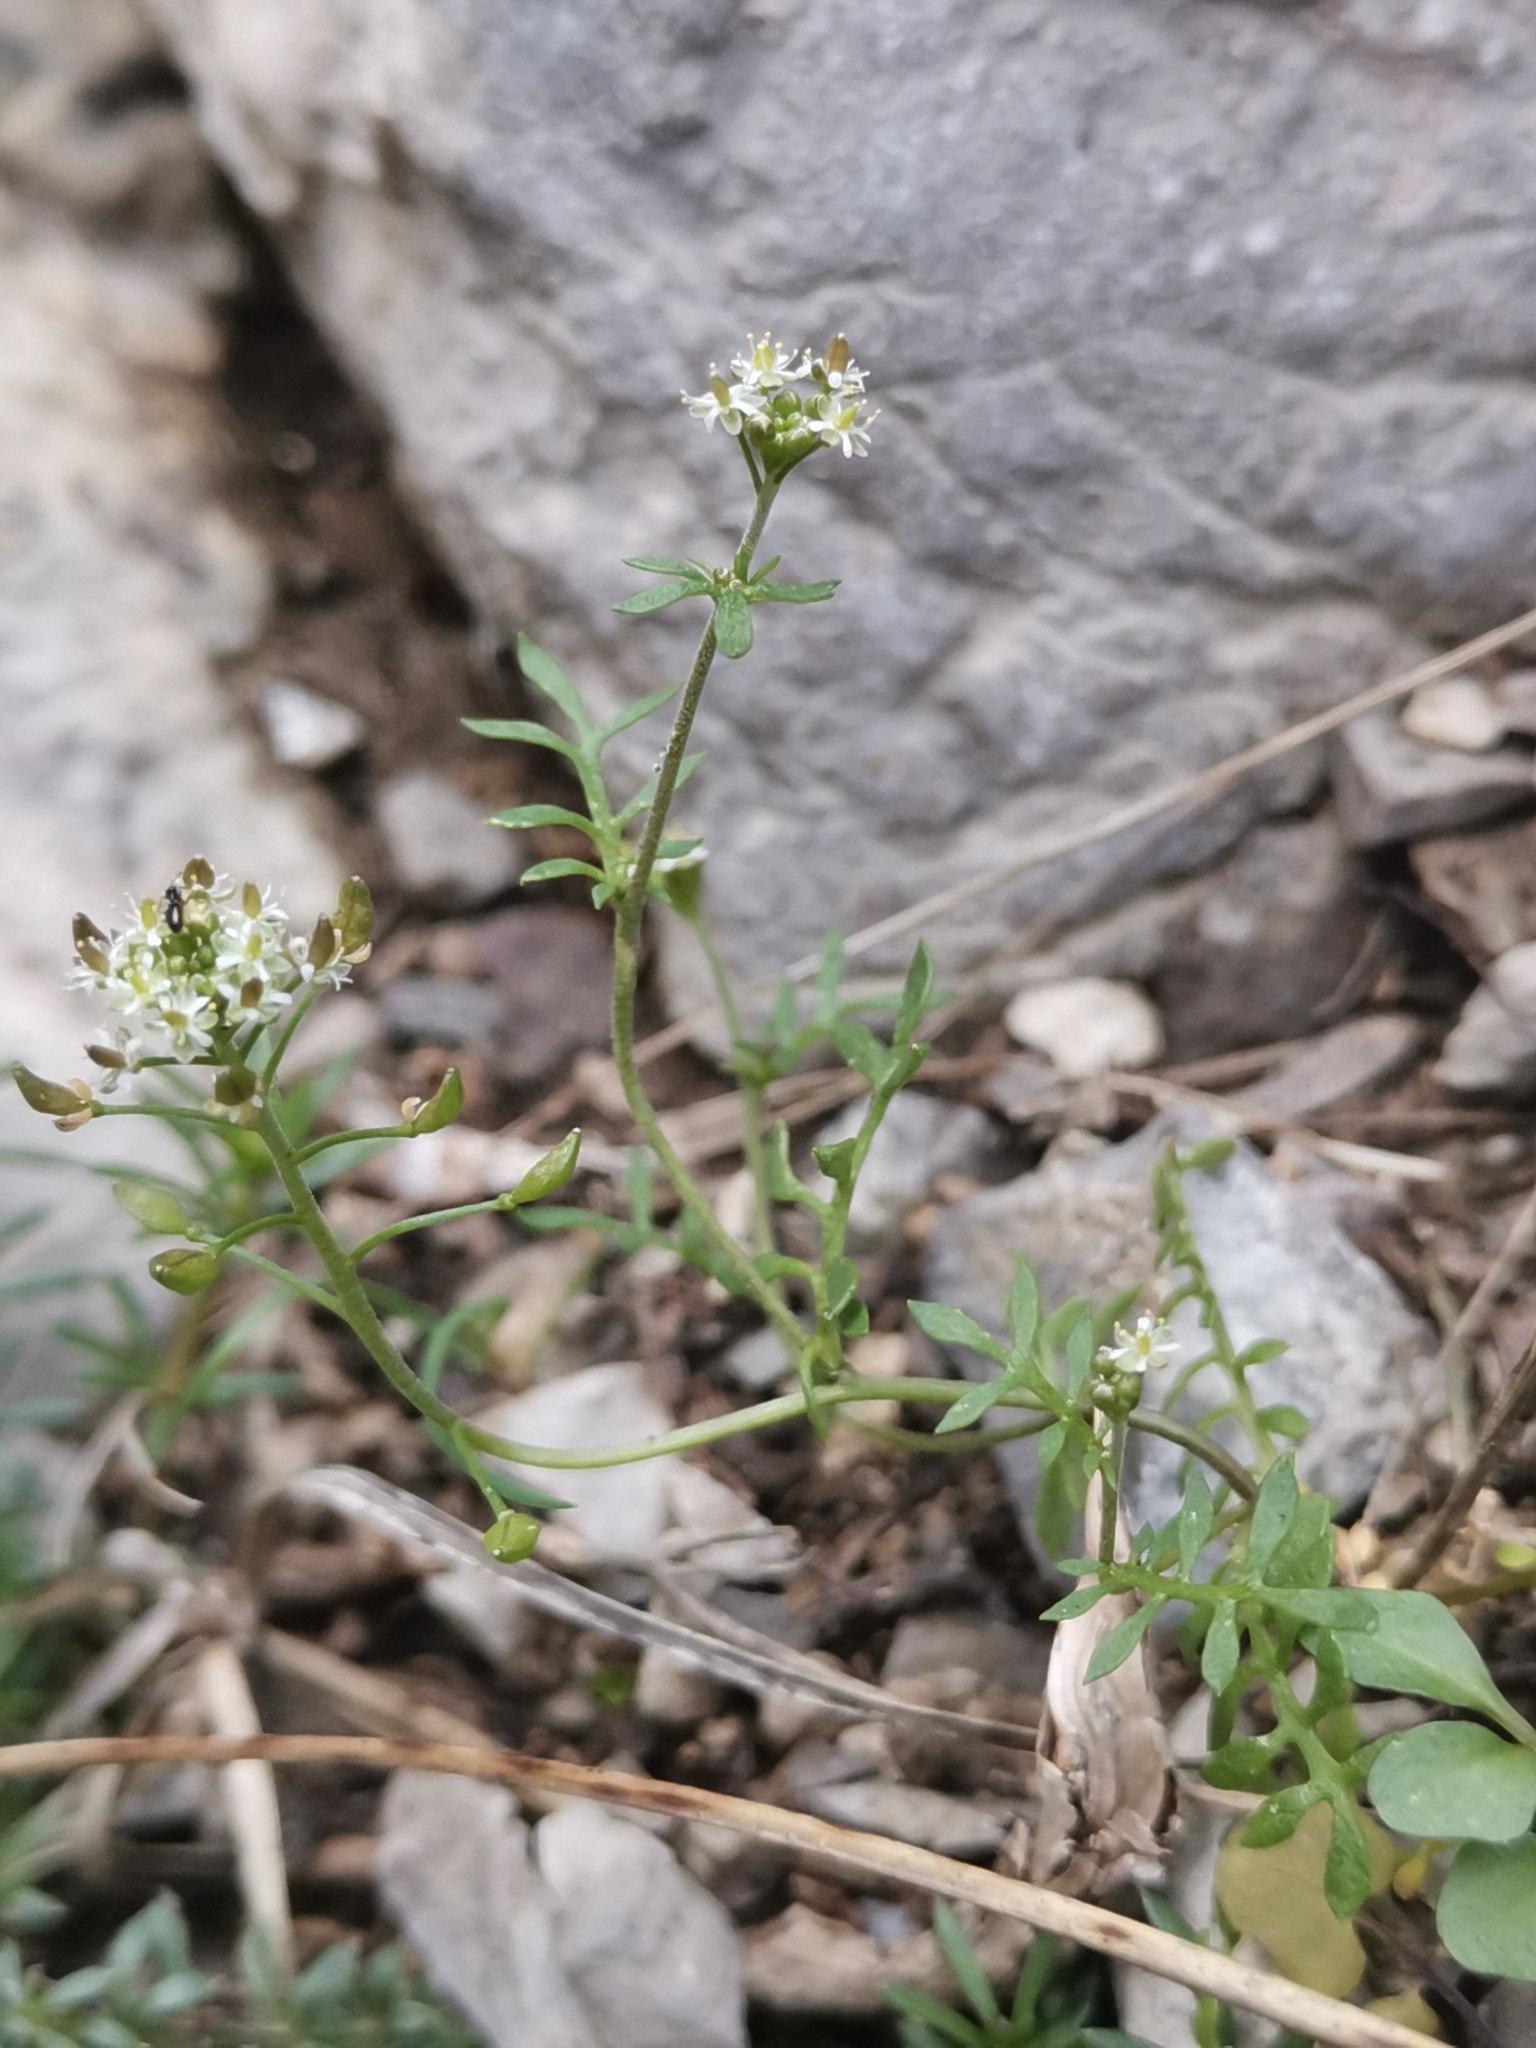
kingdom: Plantae
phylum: Tracheophyta
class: Magnoliopsida
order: Brassicales
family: Brassicaceae
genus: Hornungia
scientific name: Hornungia petraea
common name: Hutchinsia
